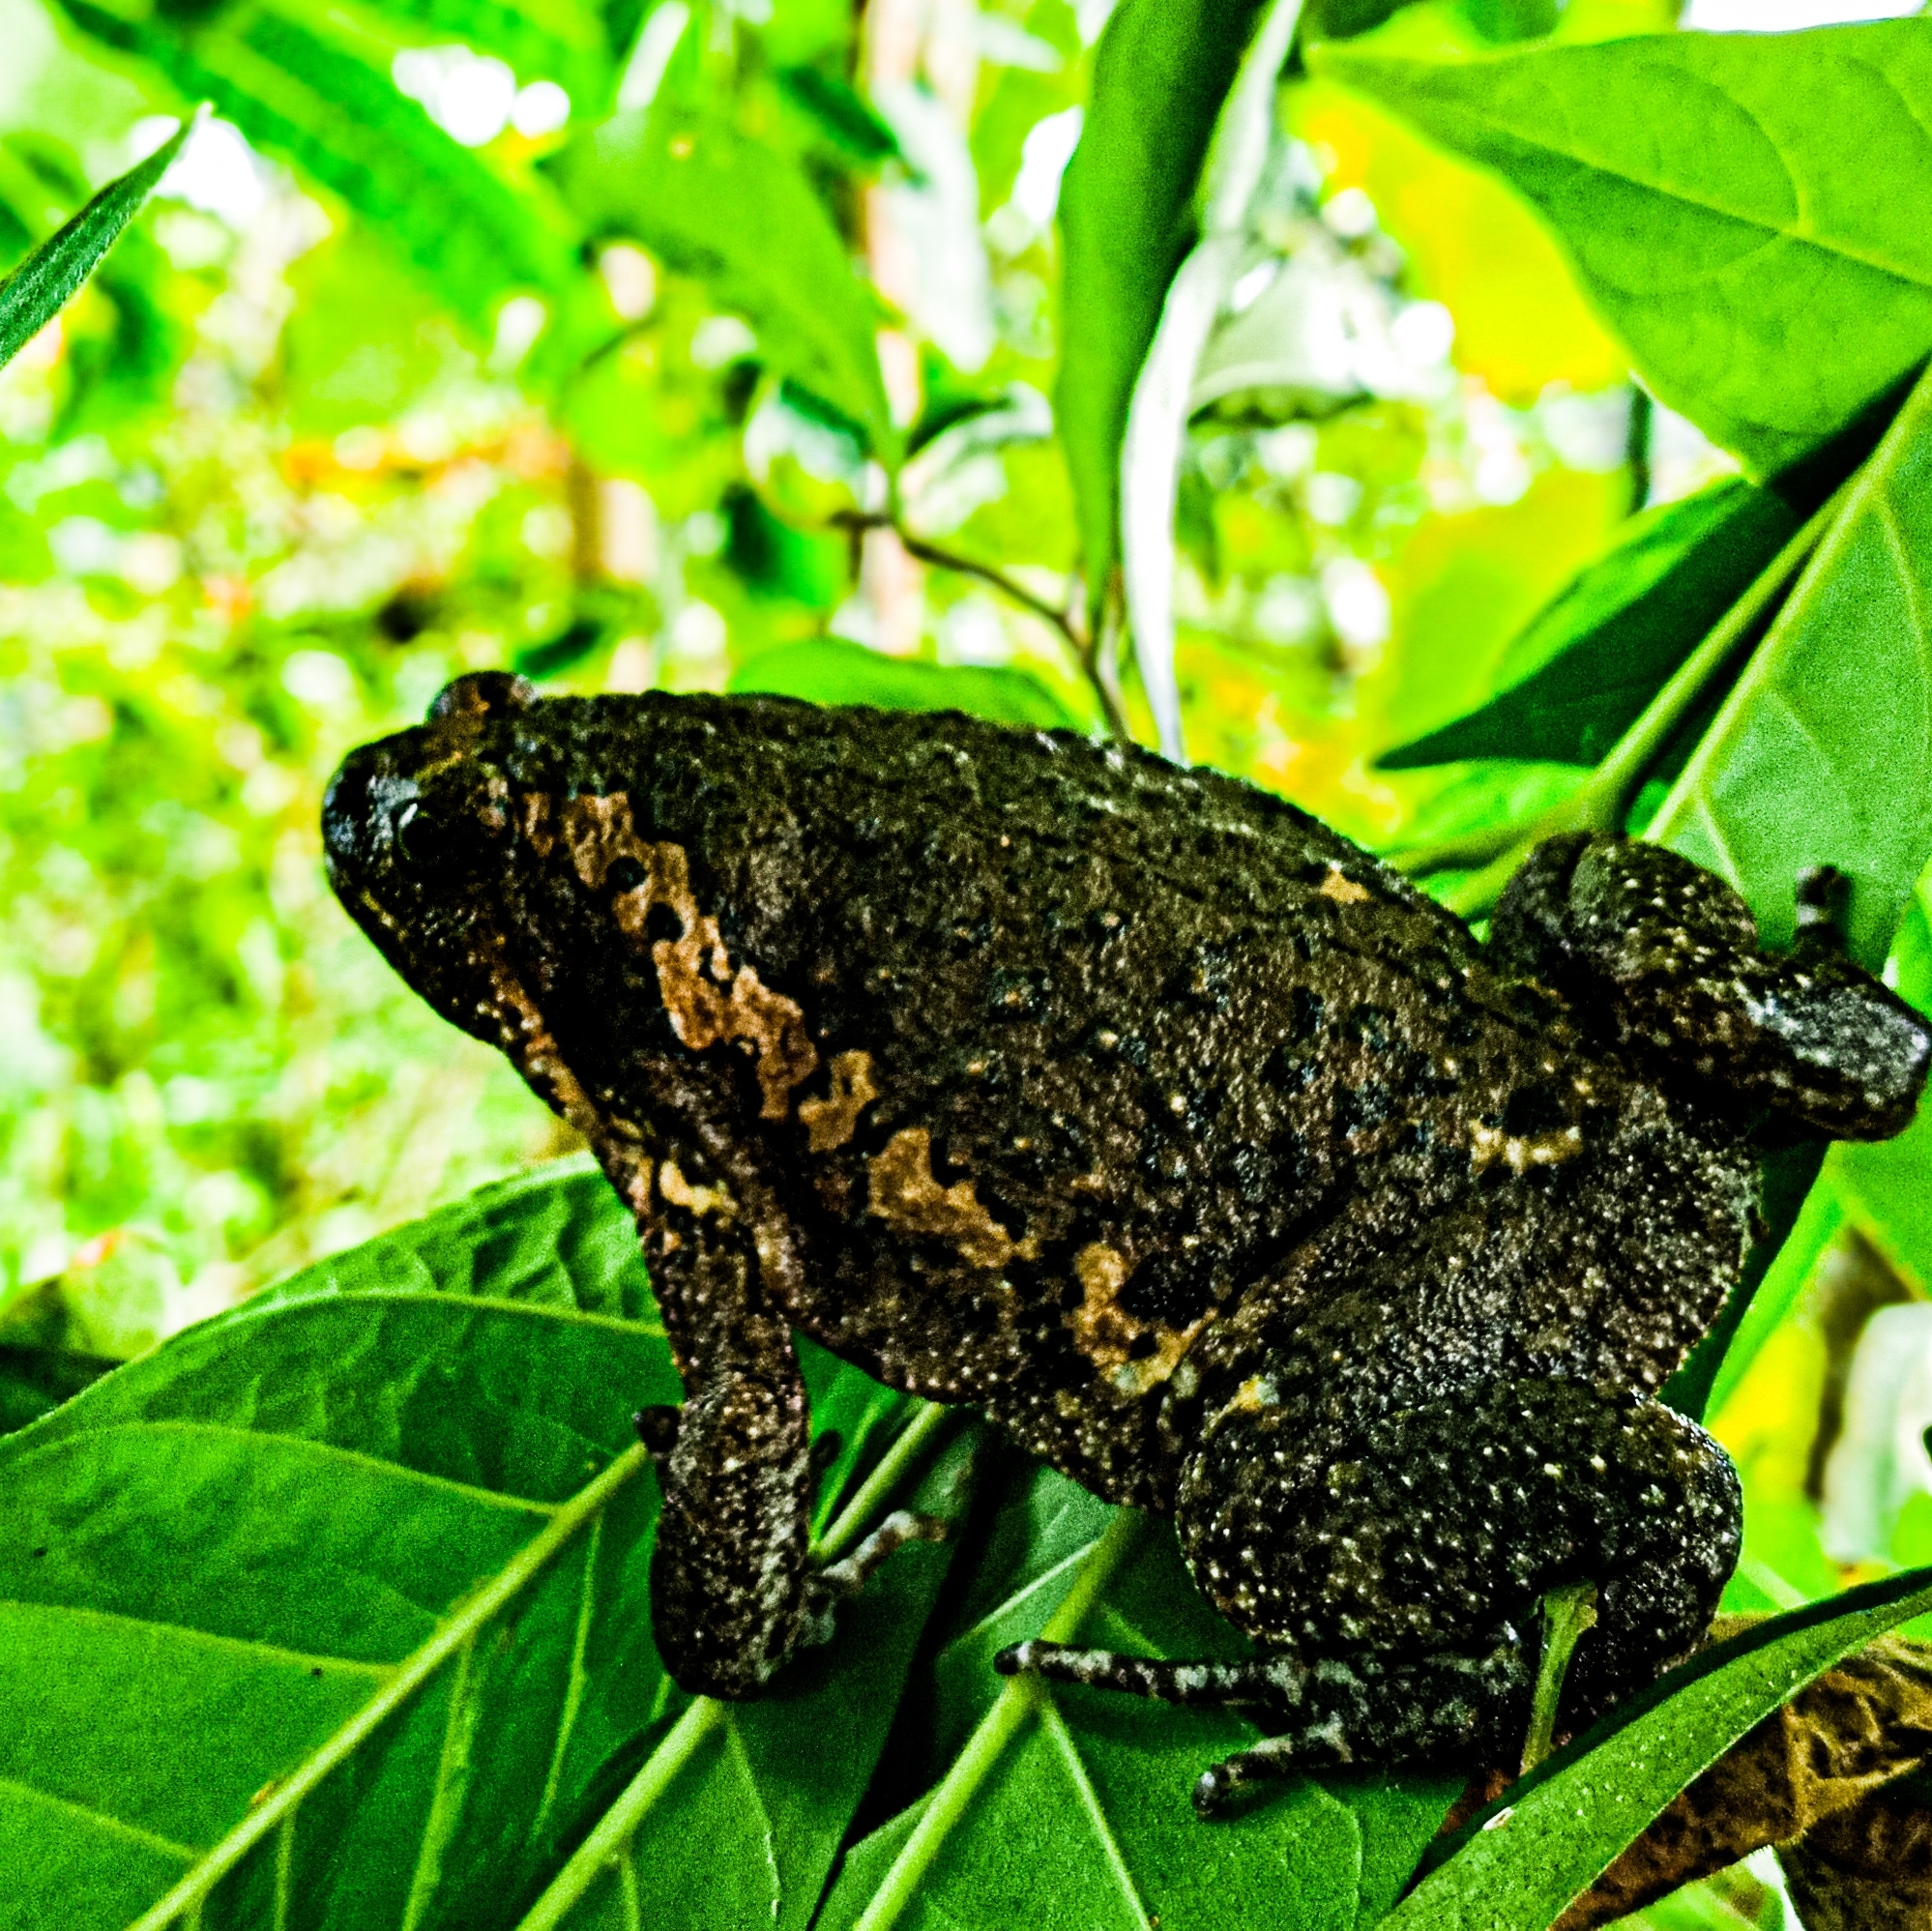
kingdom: Animalia
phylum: Chordata
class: Amphibia
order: Anura
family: Bufonidae
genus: Ansonia
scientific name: Ansonia muelleri
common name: Mueller’s toad
